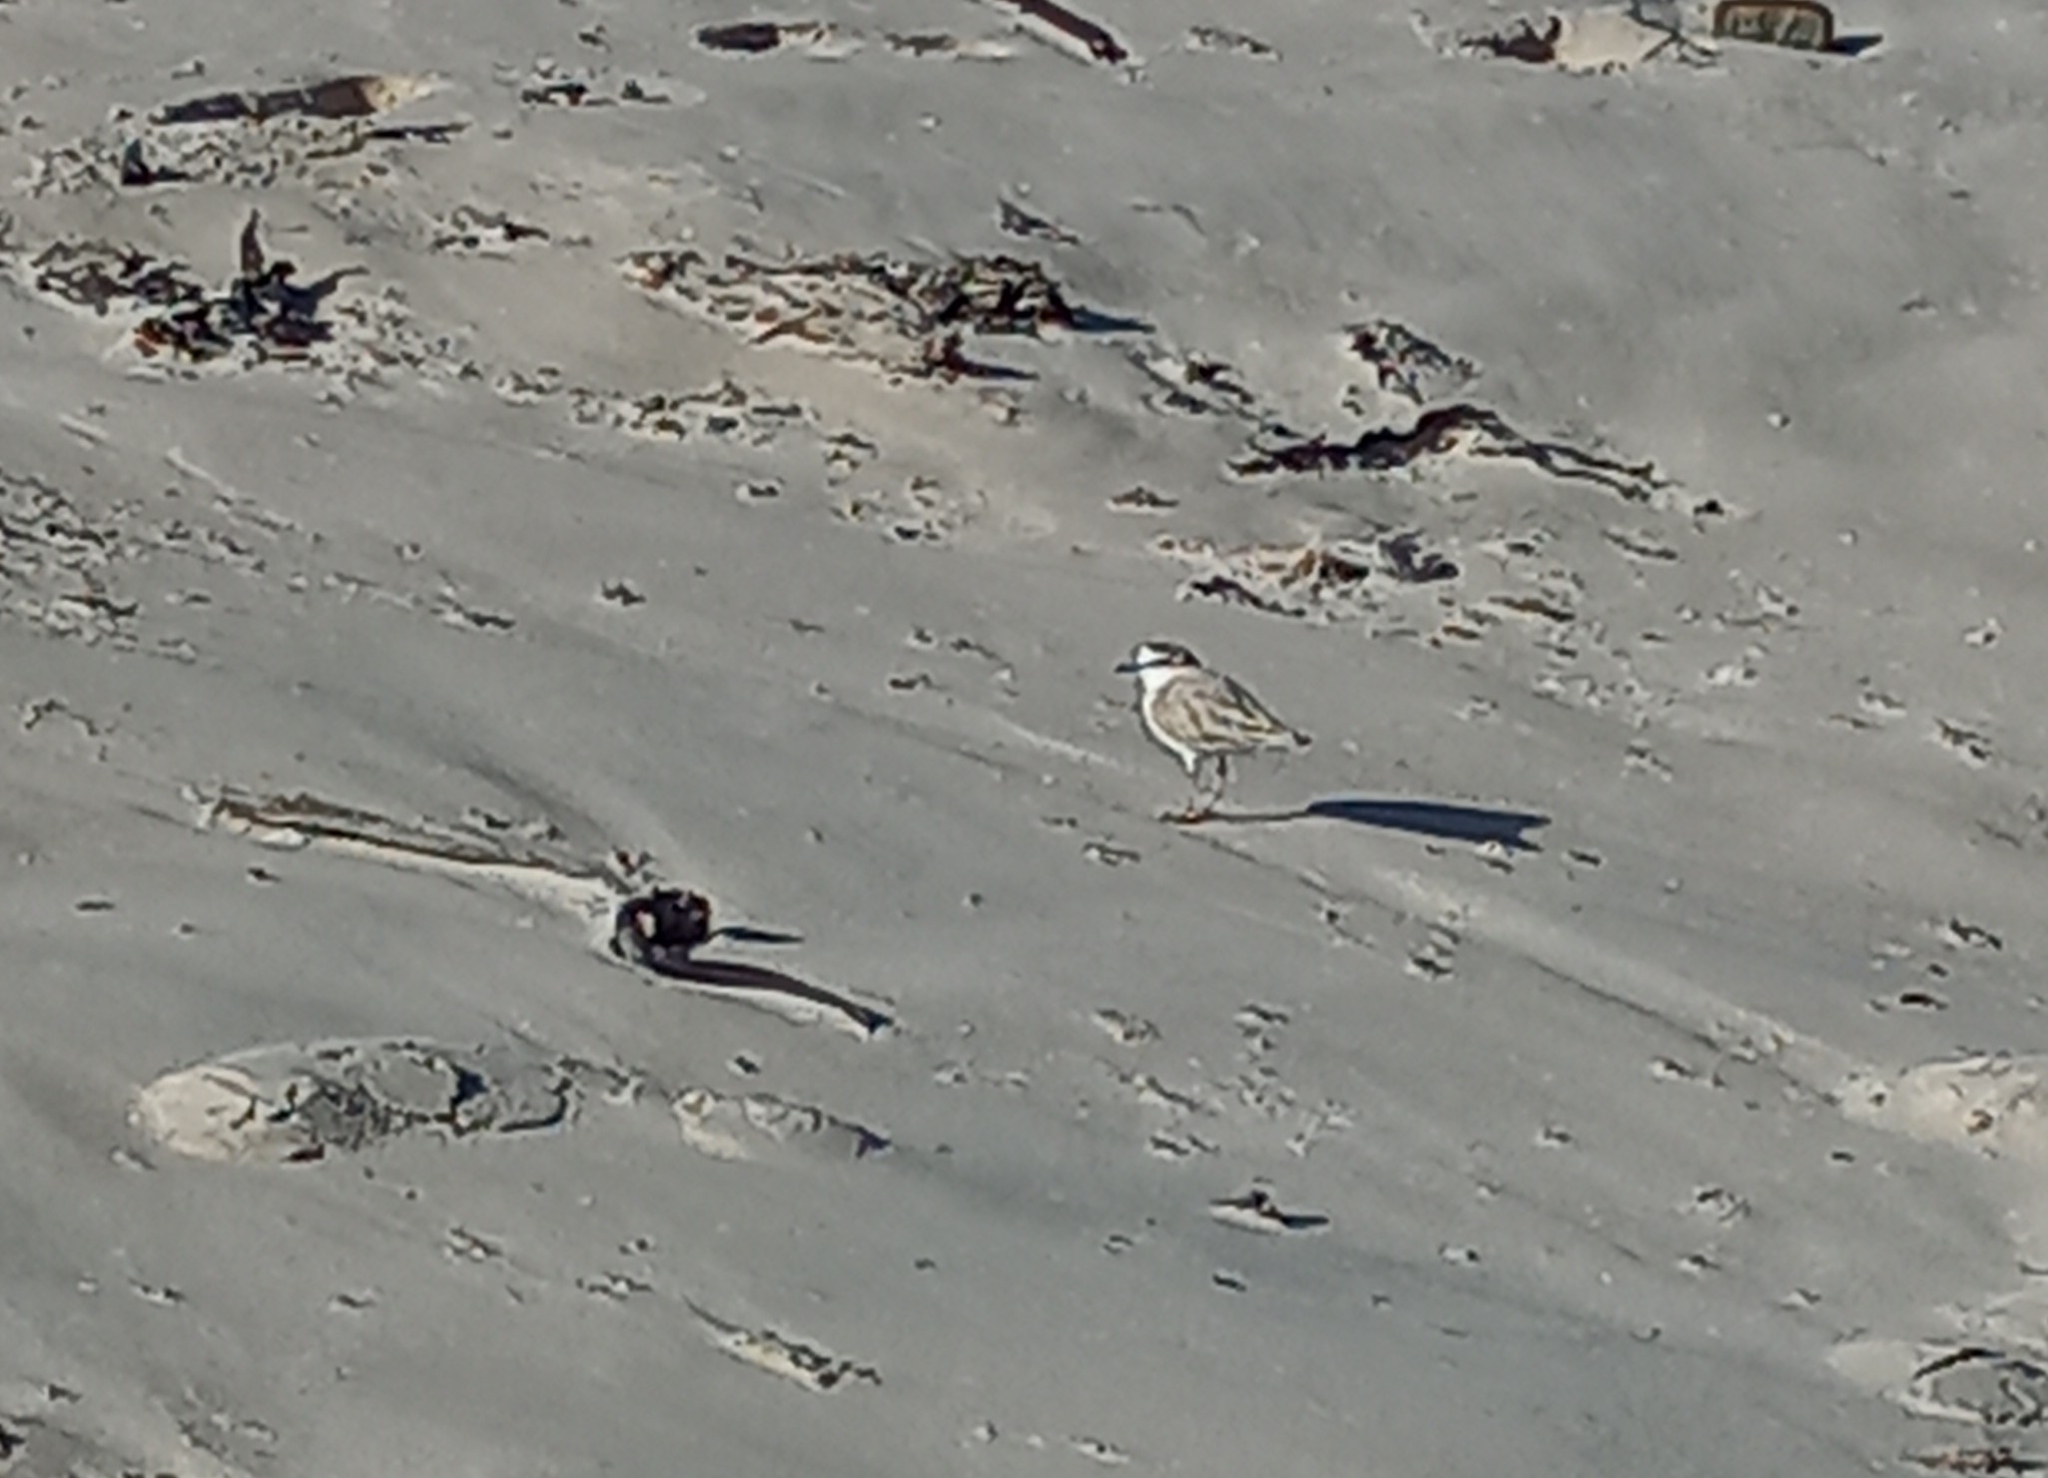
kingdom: Animalia
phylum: Chordata
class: Aves
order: Charadriiformes
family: Charadriidae
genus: Anarhynchus
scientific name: Anarhynchus
